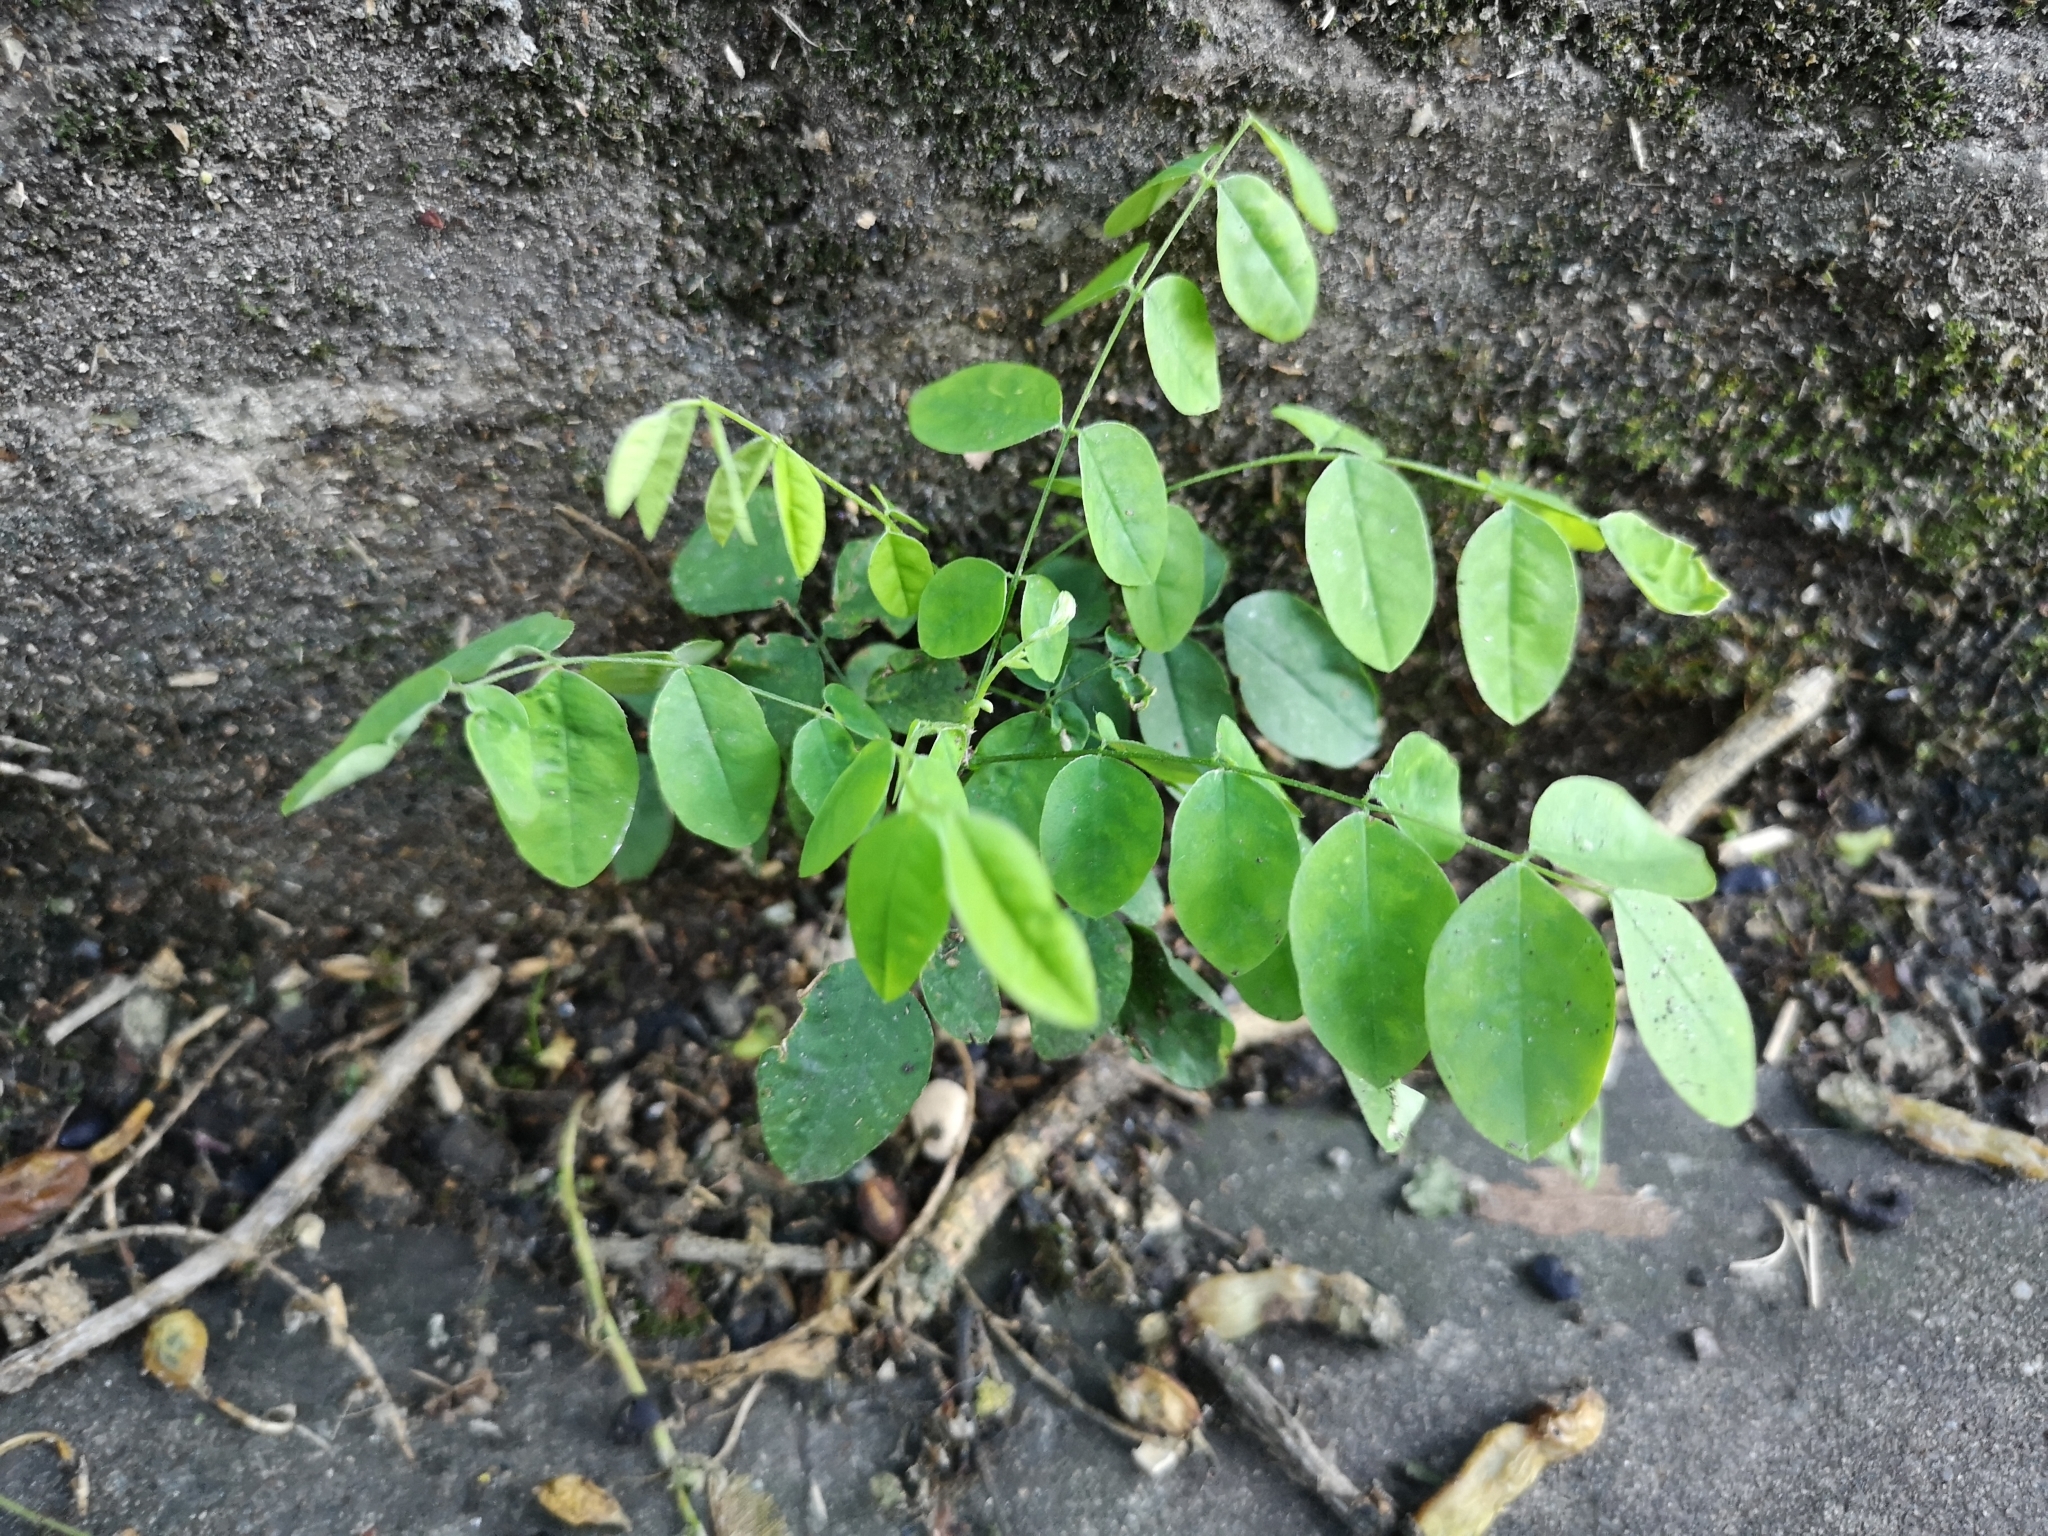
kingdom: Plantae
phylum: Tracheophyta
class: Magnoliopsida
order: Fabales
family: Fabaceae
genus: Robinia
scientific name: Robinia pseudoacacia
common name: Black locust
